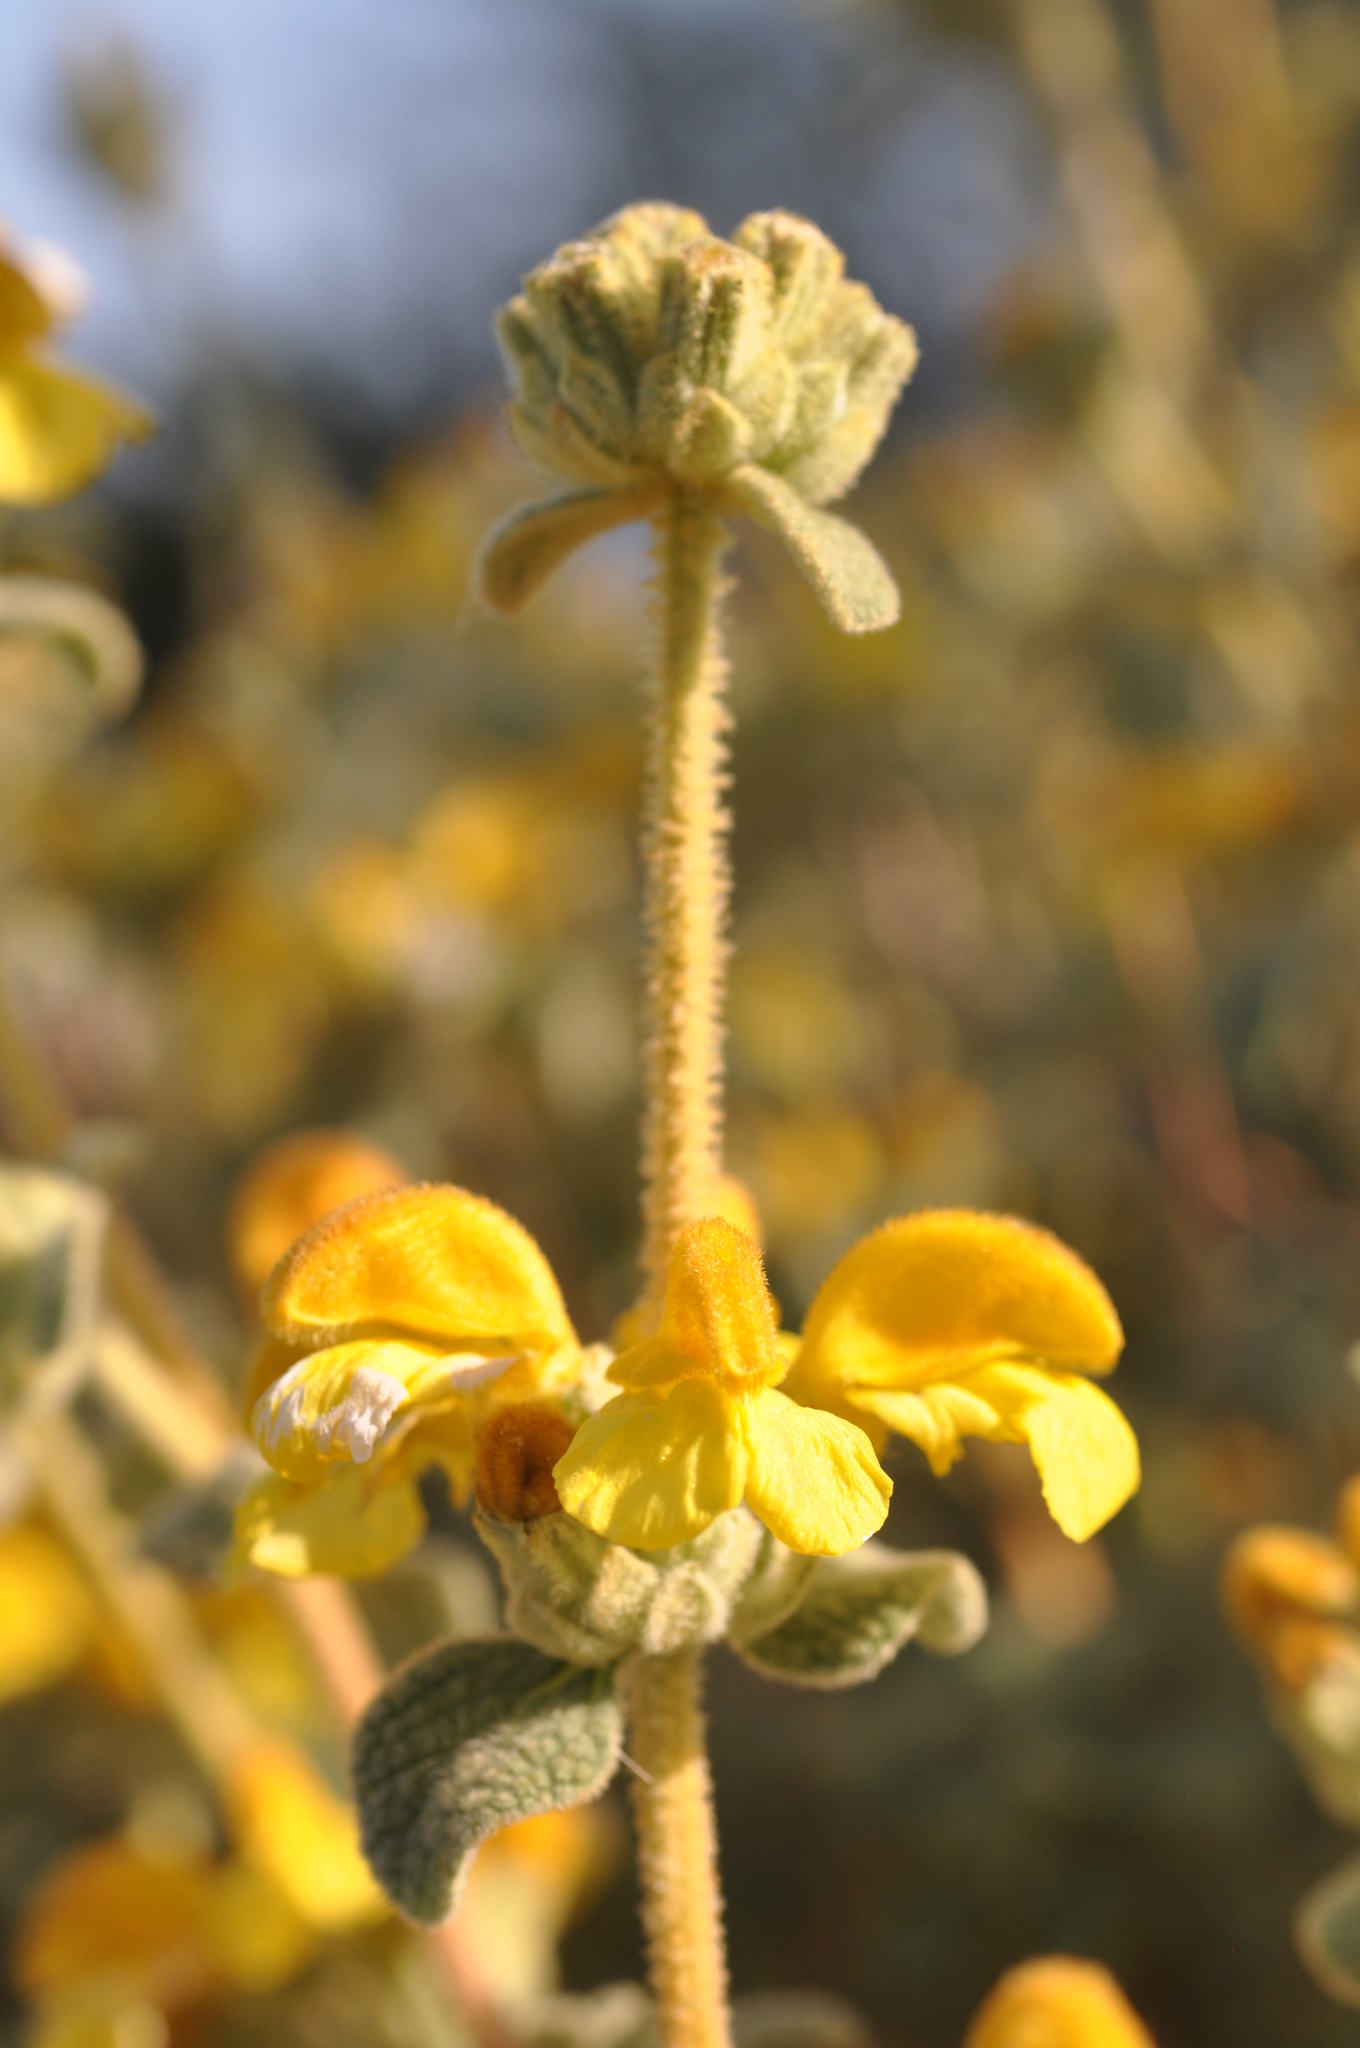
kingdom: Plantae
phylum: Tracheophyta
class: Magnoliopsida
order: Lamiales
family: Lamiaceae
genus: Phlomis
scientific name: Phlomis lanata
